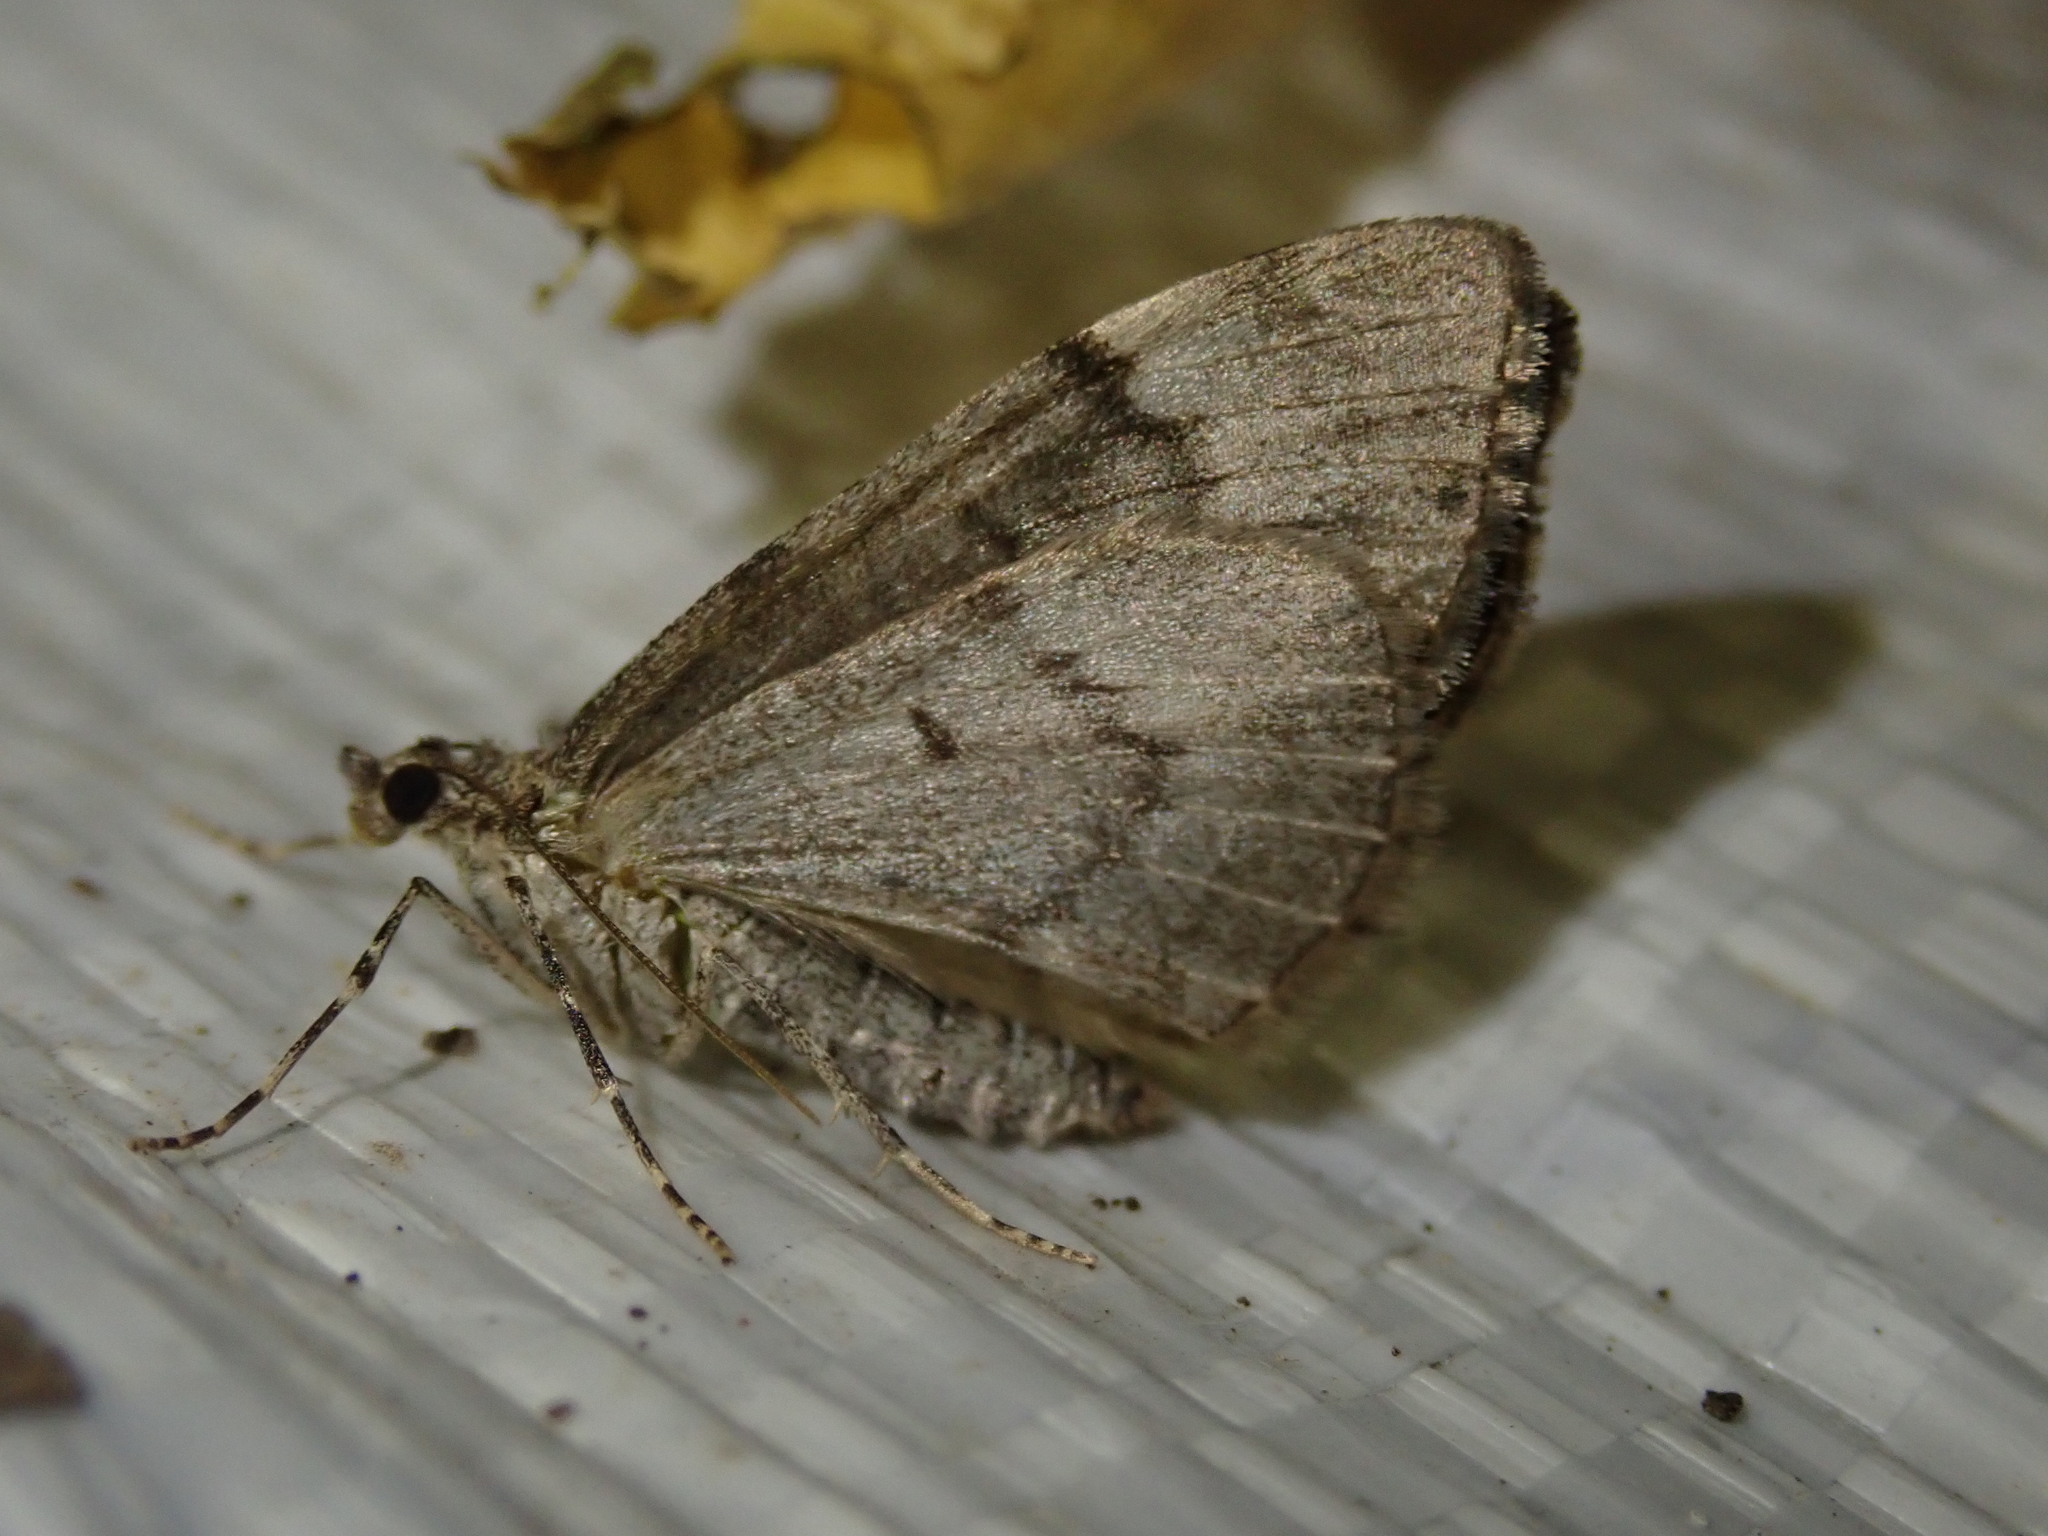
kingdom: Animalia
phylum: Arthropoda
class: Insecta
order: Lepidoptera
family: Geometridae
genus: Dysstroma
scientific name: Dysstroma truncata
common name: Common marbled carpet
